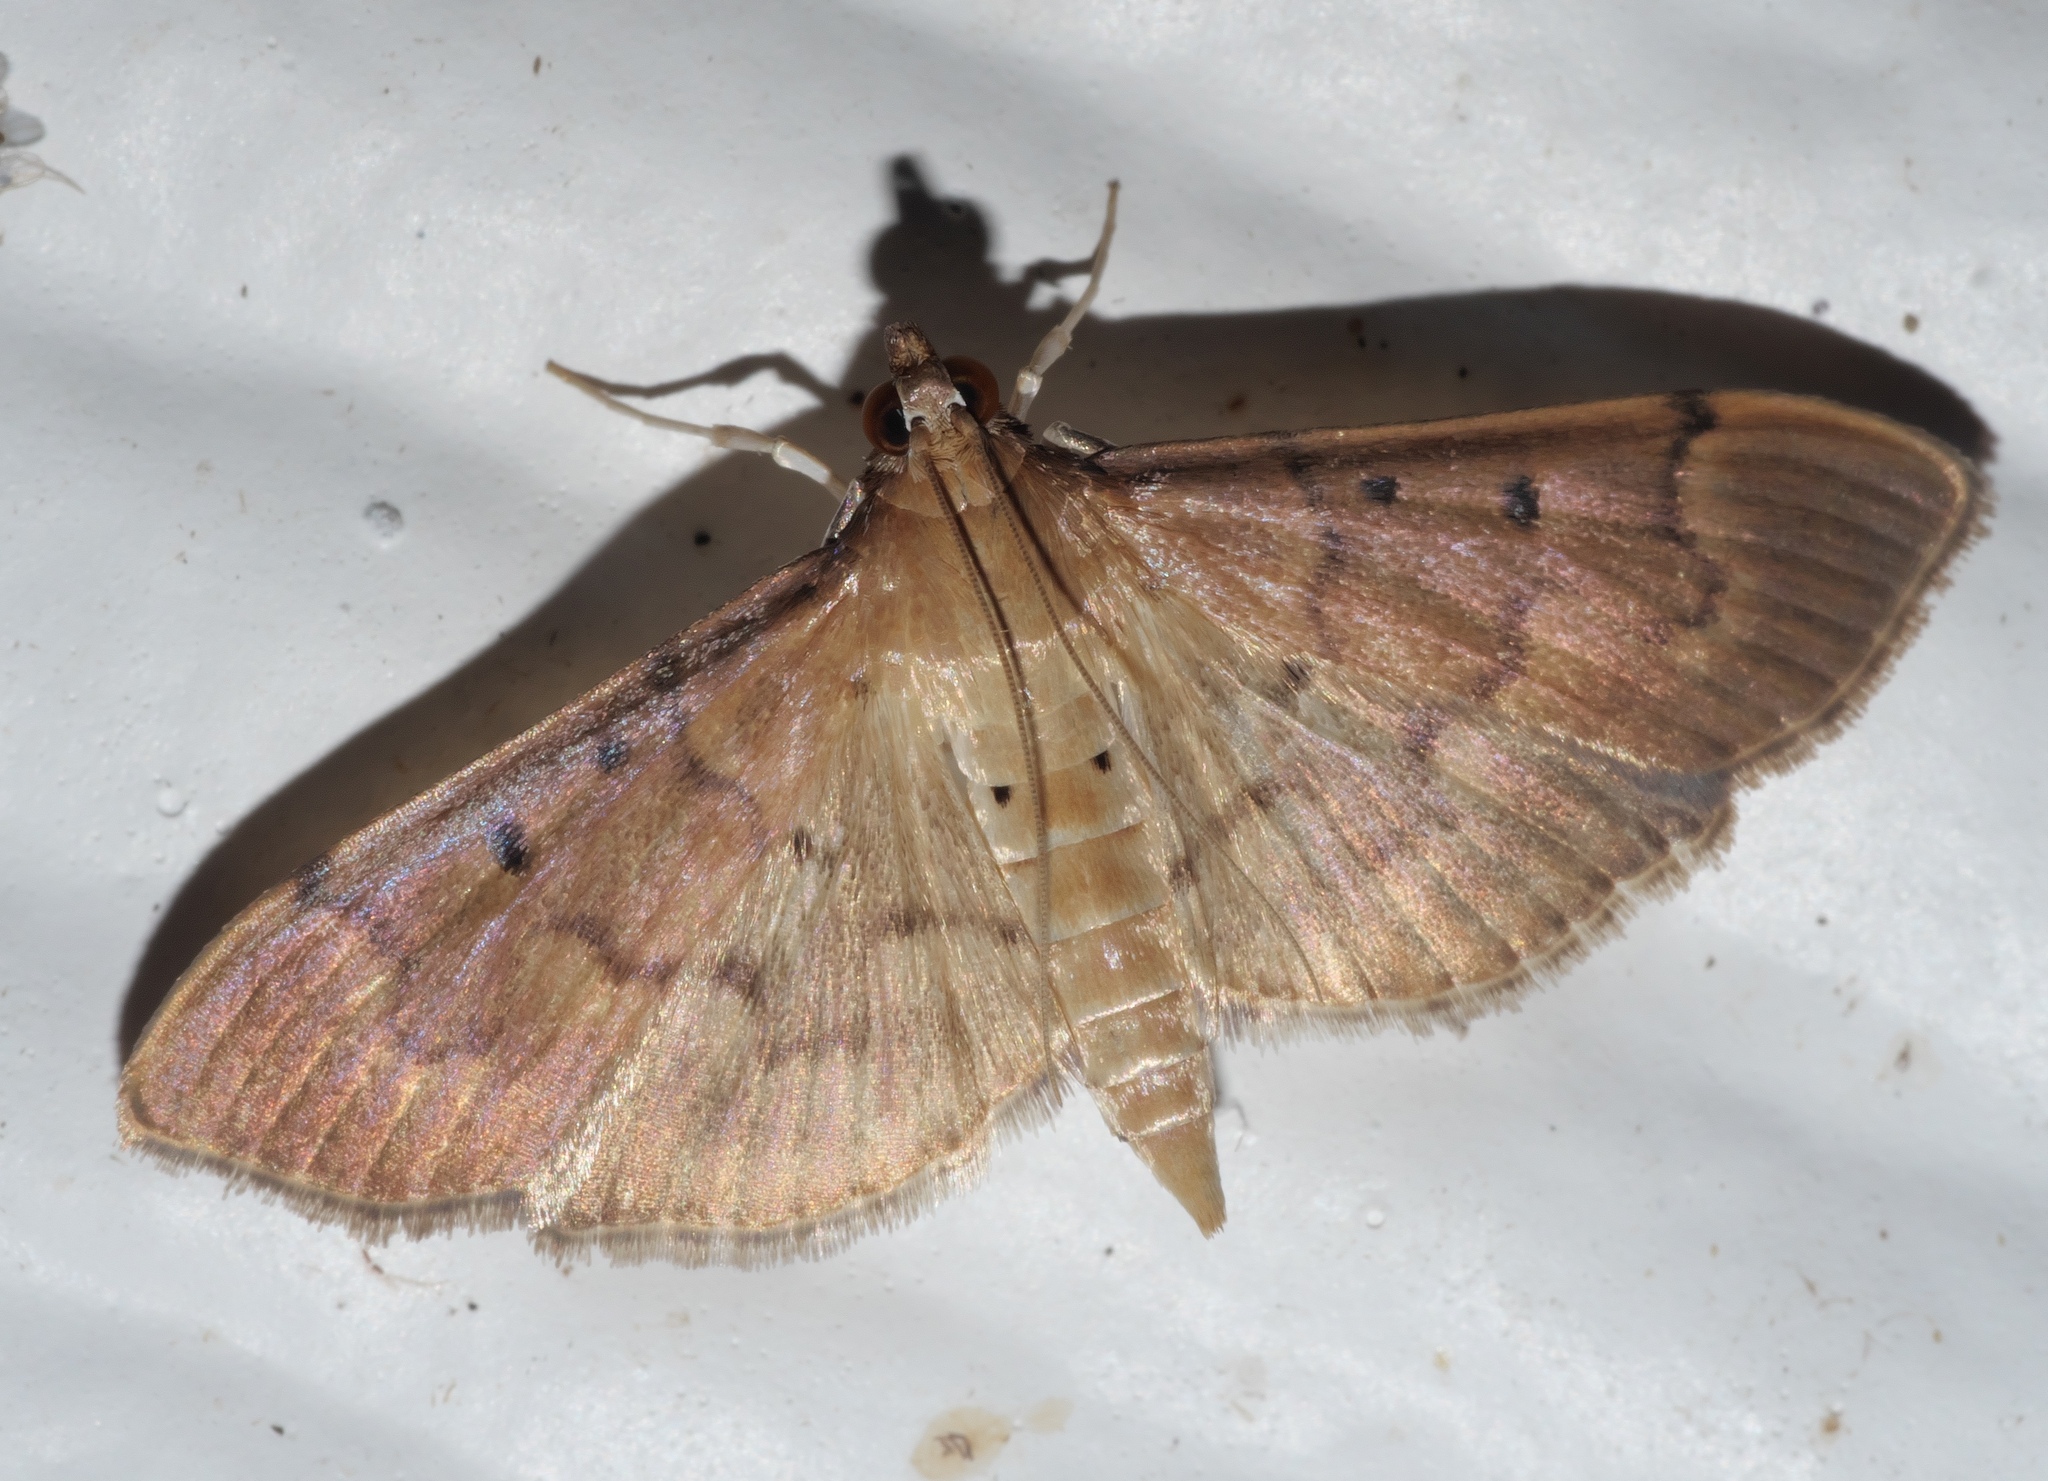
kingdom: Animalia
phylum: Arthropoda
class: Insecta
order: Lepidoptera
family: Crambidae
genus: Herpetogramma
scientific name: Herpetogramma bipunctalis
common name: Southern beet webworm
